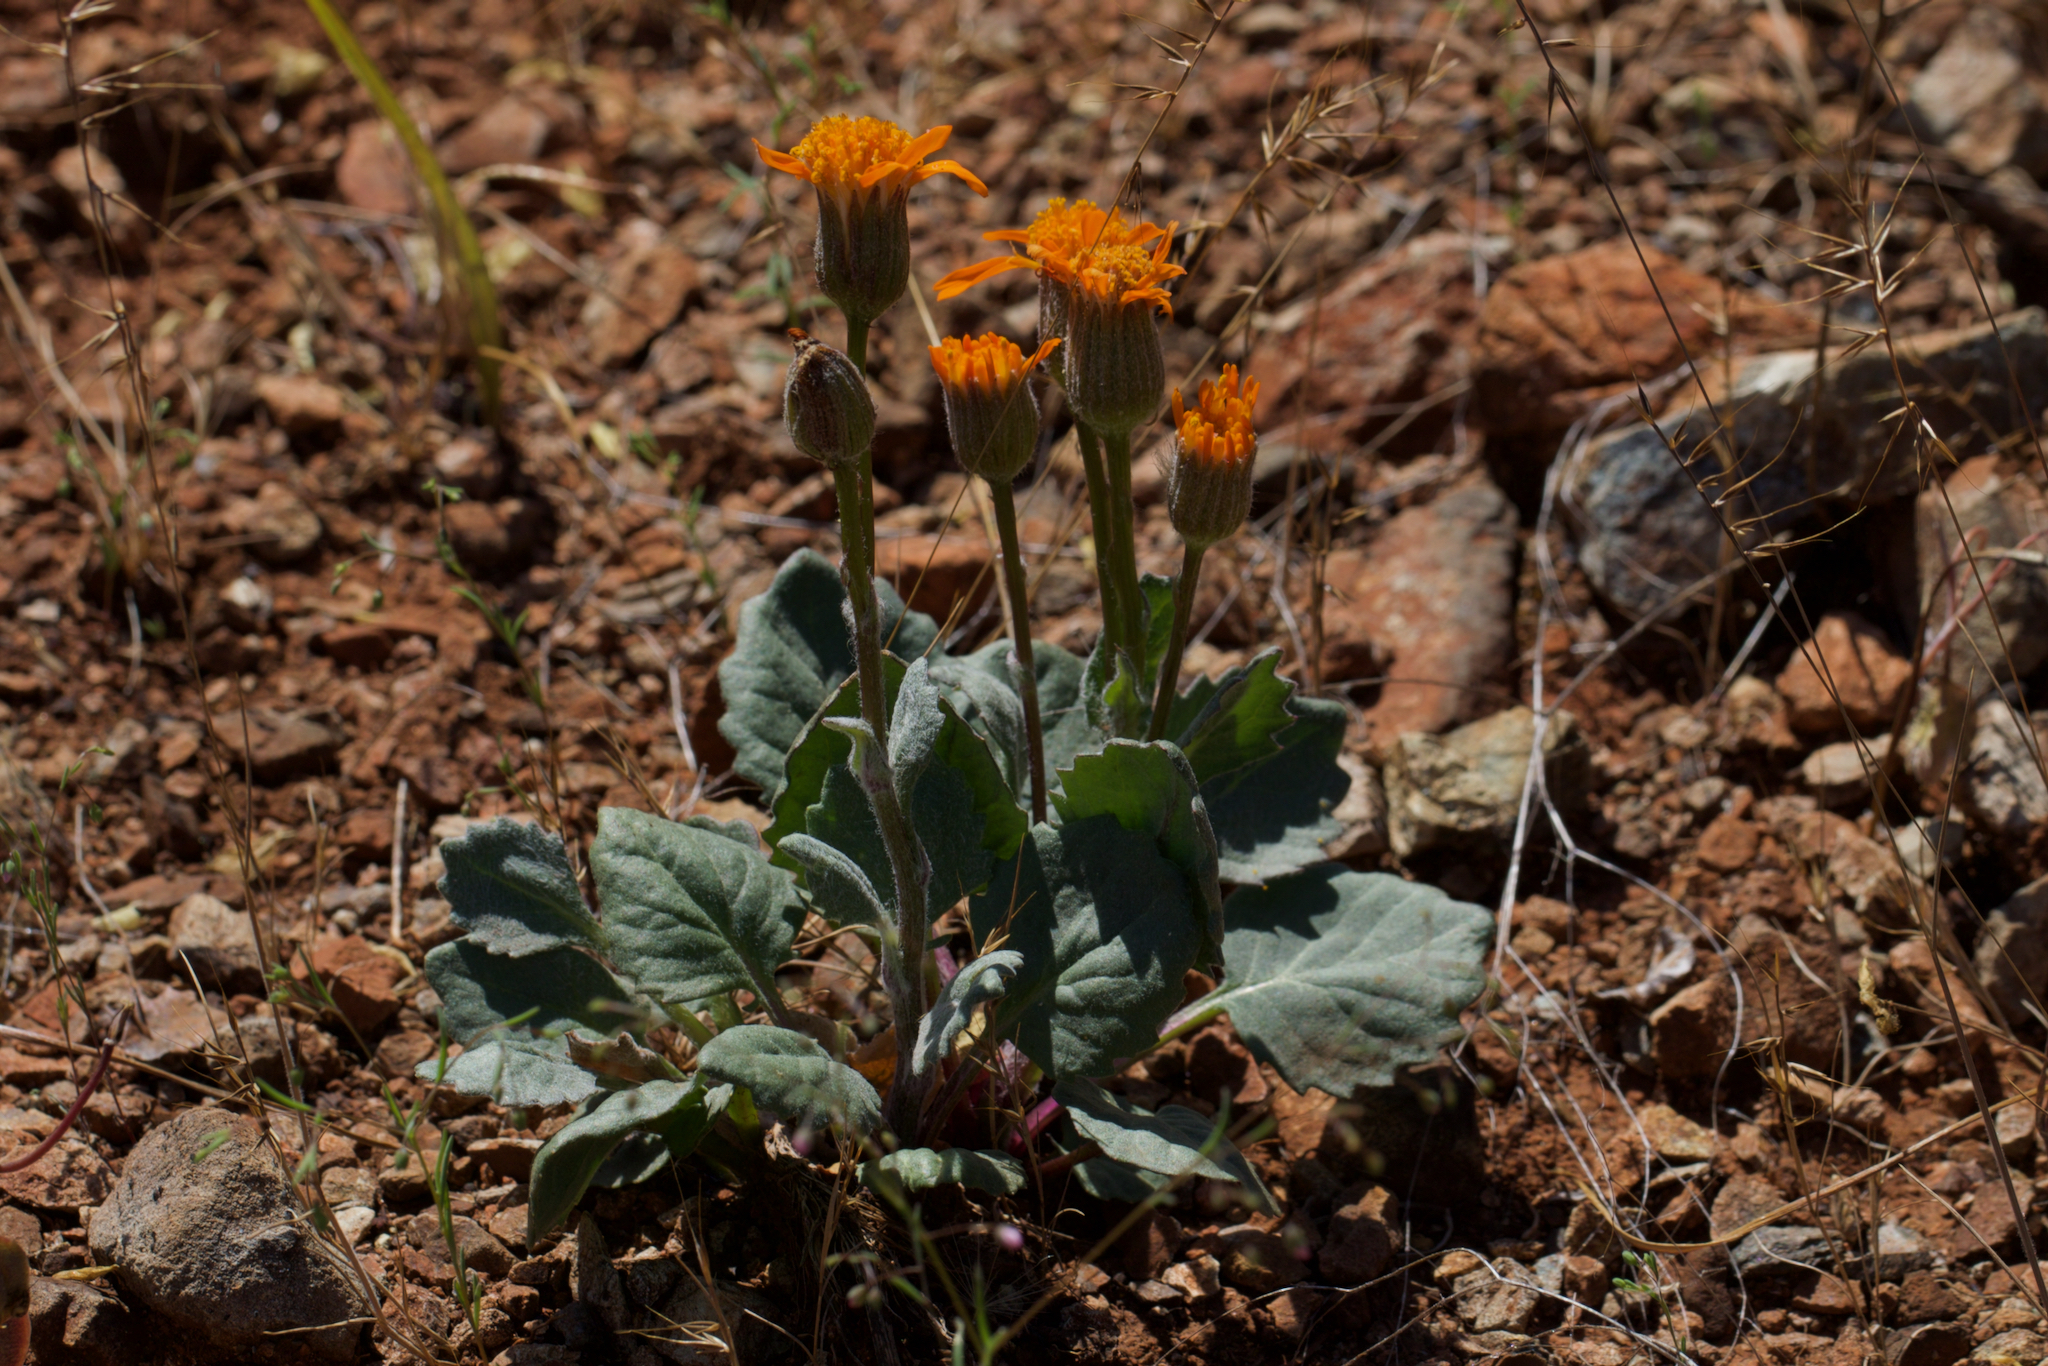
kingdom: Plantae
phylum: Tracheophyta
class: Magnoliopsida
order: Asterales
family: Asteraceae
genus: Packera
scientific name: Packera greenei
